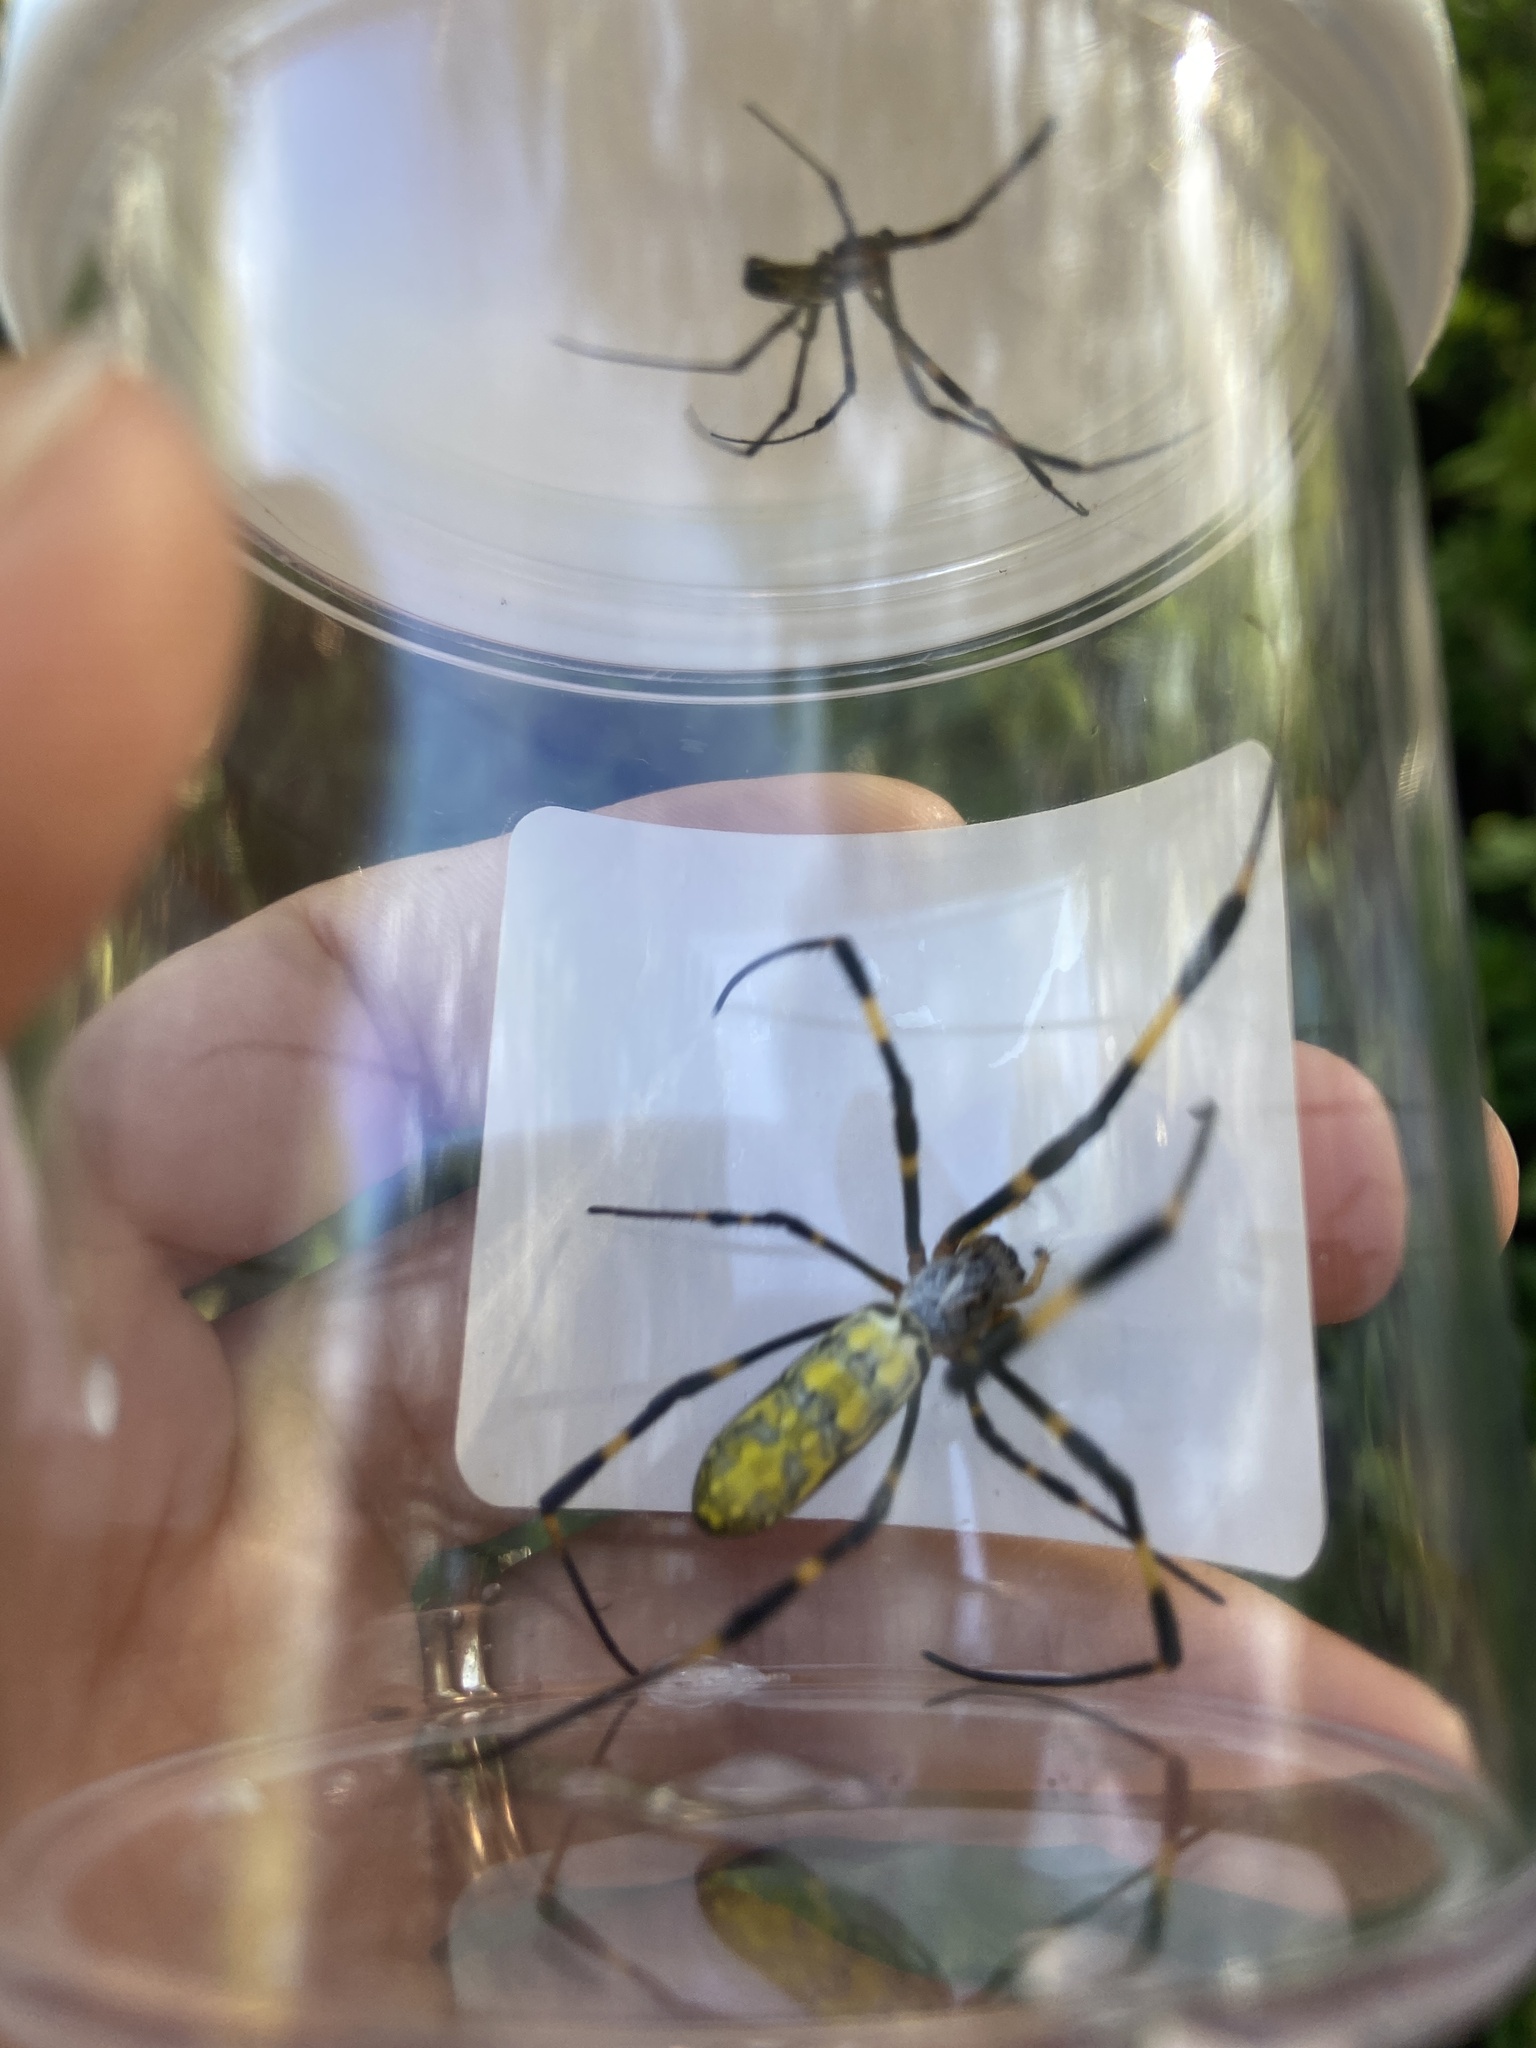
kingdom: Animalia
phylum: Arthropoda
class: Arachnida
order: Araneae
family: Araneidae
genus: Trichonephila
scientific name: Trichonephila clavata
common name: Jorō spider
